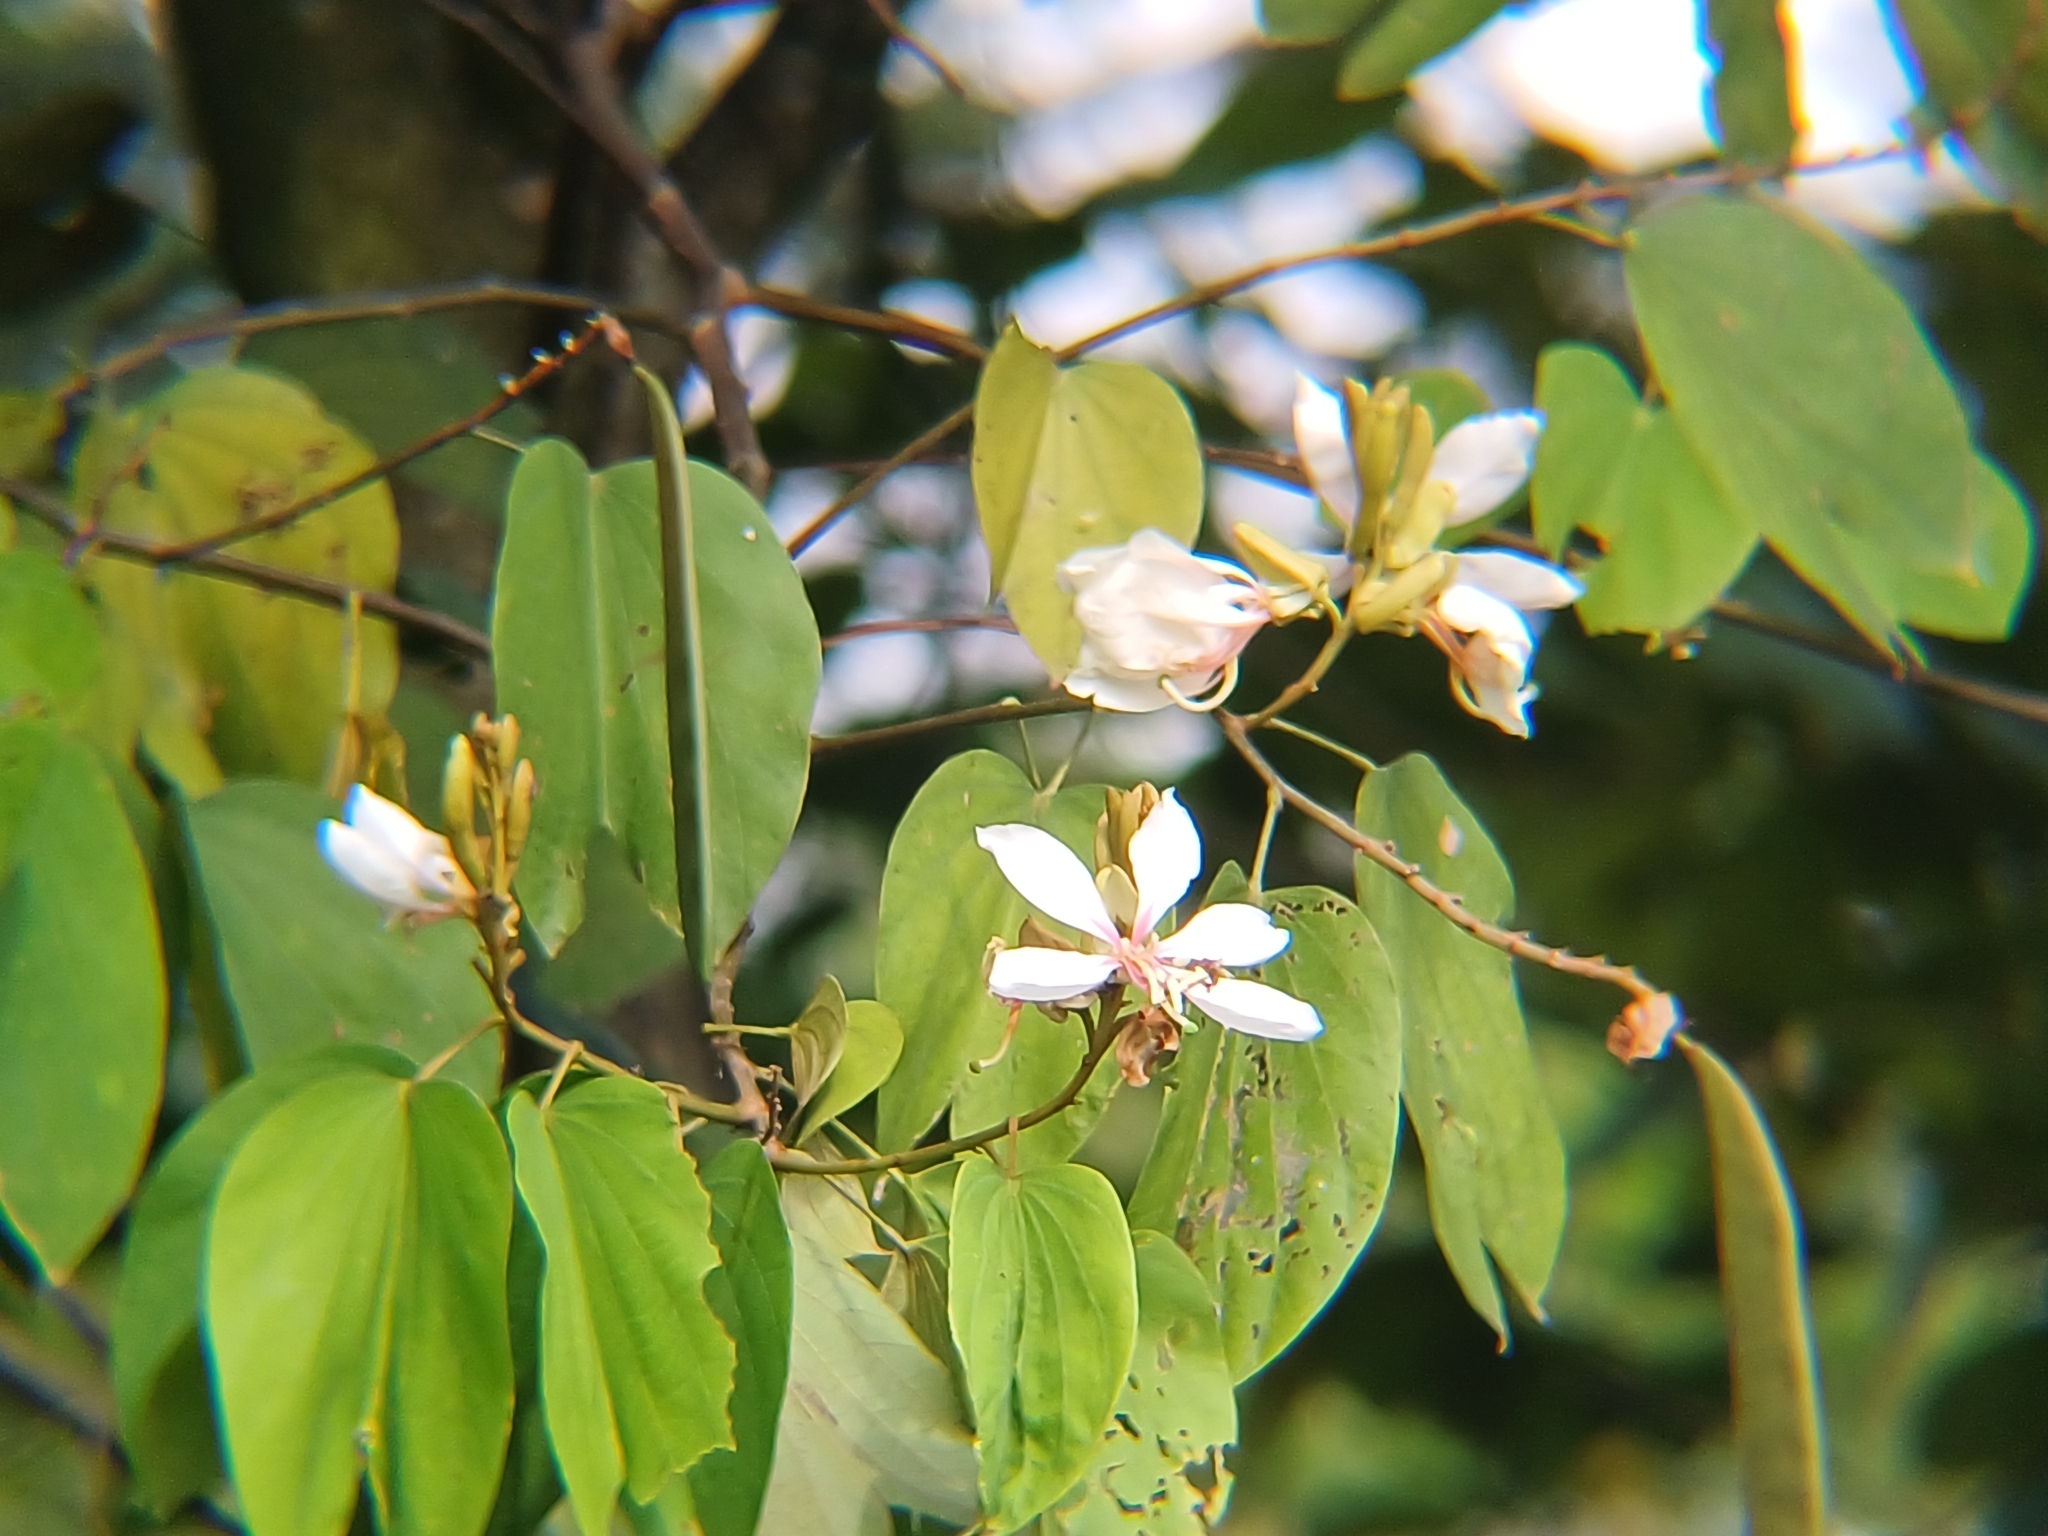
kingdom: Plantae
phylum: Tracheophyta
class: Magnoliopsida
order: Fabales
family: Fabaceae
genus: Bauhinia
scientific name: Bauhinia picta
